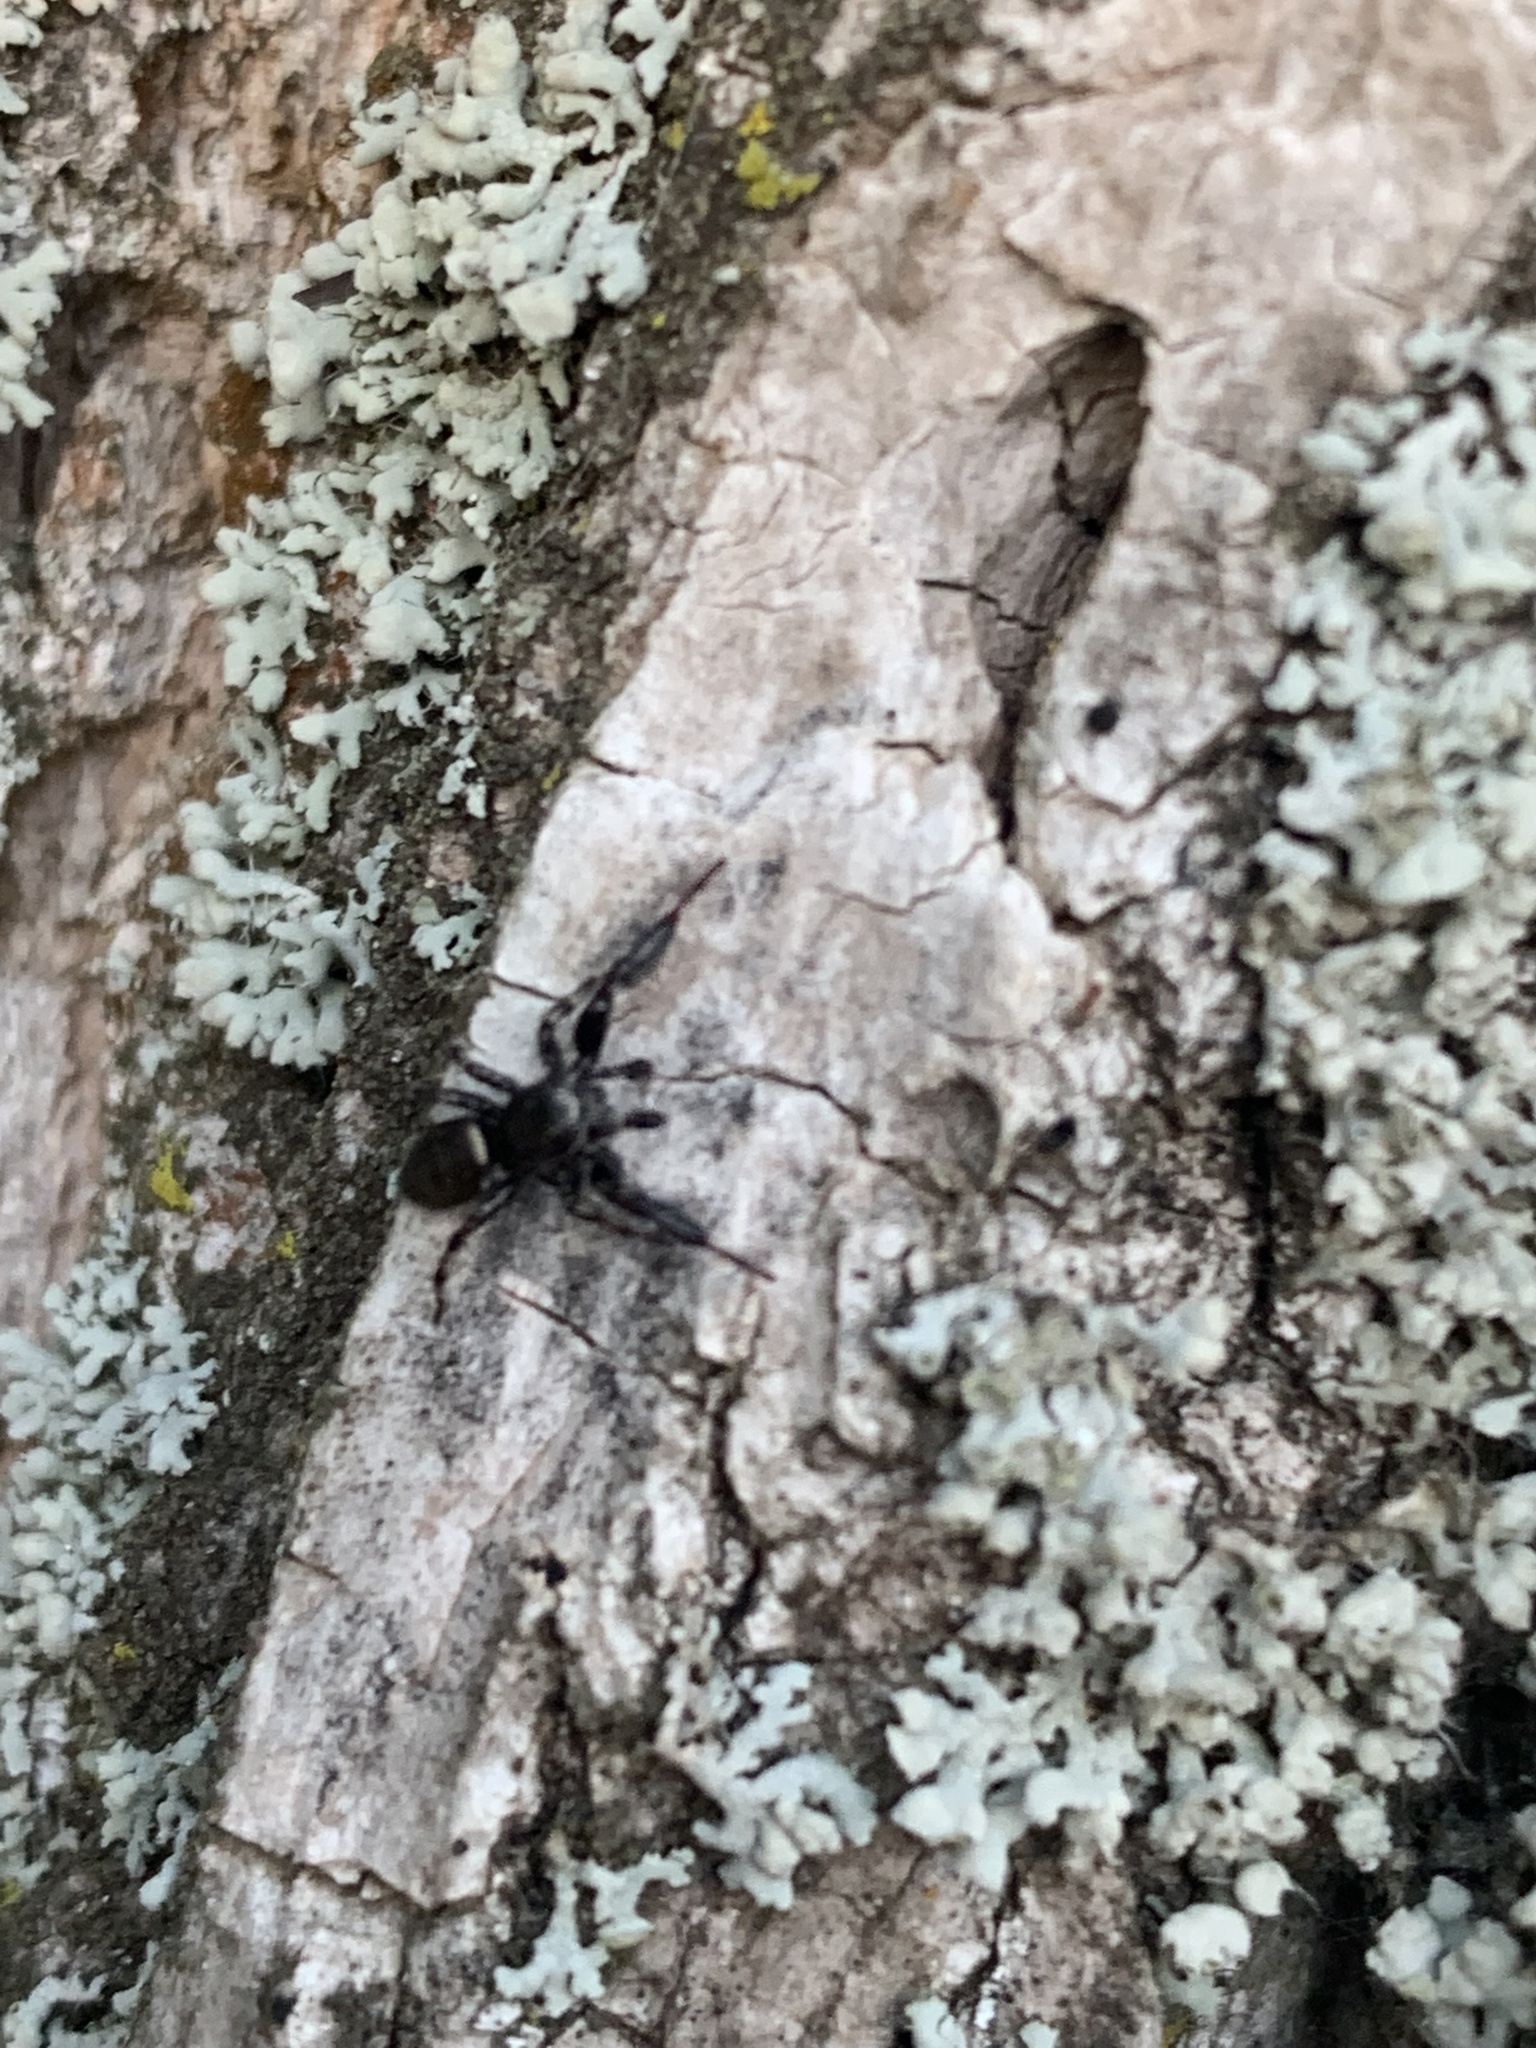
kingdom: Animalia
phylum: Arthropoda
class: Arachnida
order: Araneae
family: Salticidae
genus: Tutelina
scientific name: Tutelina harti
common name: Hart's jumping spider
